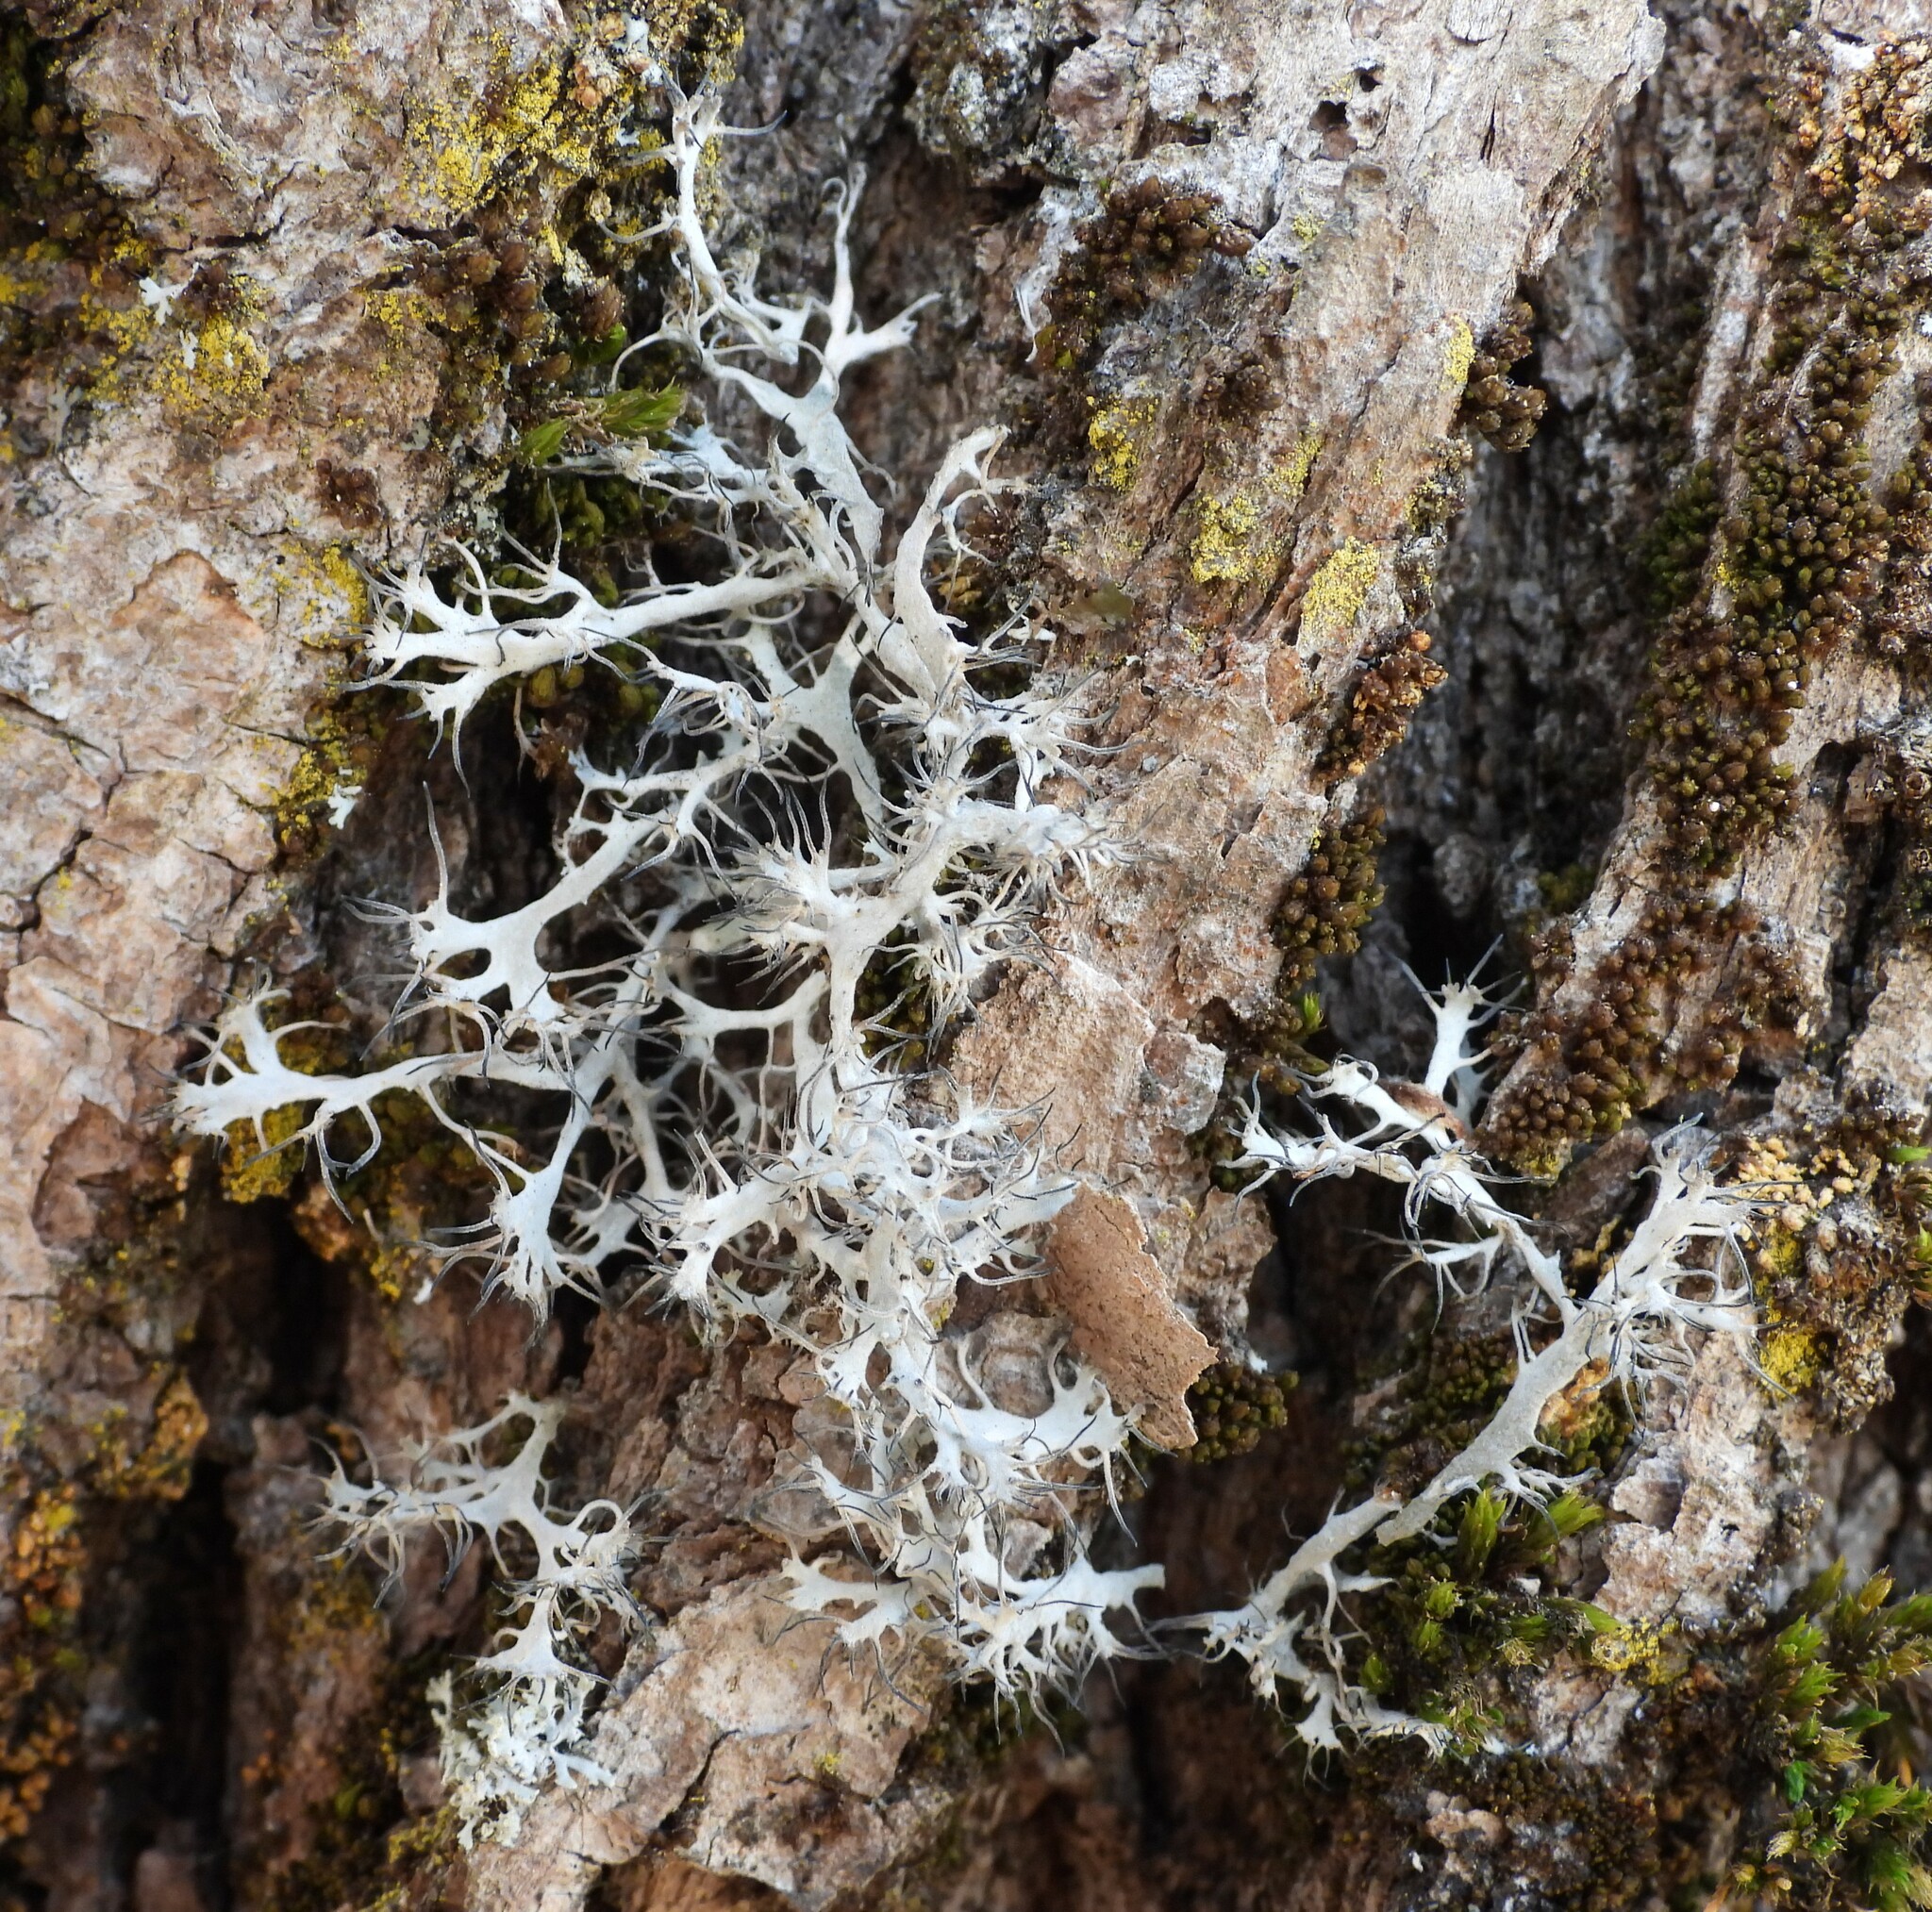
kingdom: Fungi
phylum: Ascomycota
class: Lecanoromycetes
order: Caliciales
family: Physciaceae
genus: Anaptychia
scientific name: Anaptychia ciliaris
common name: Great ciliated lichen
